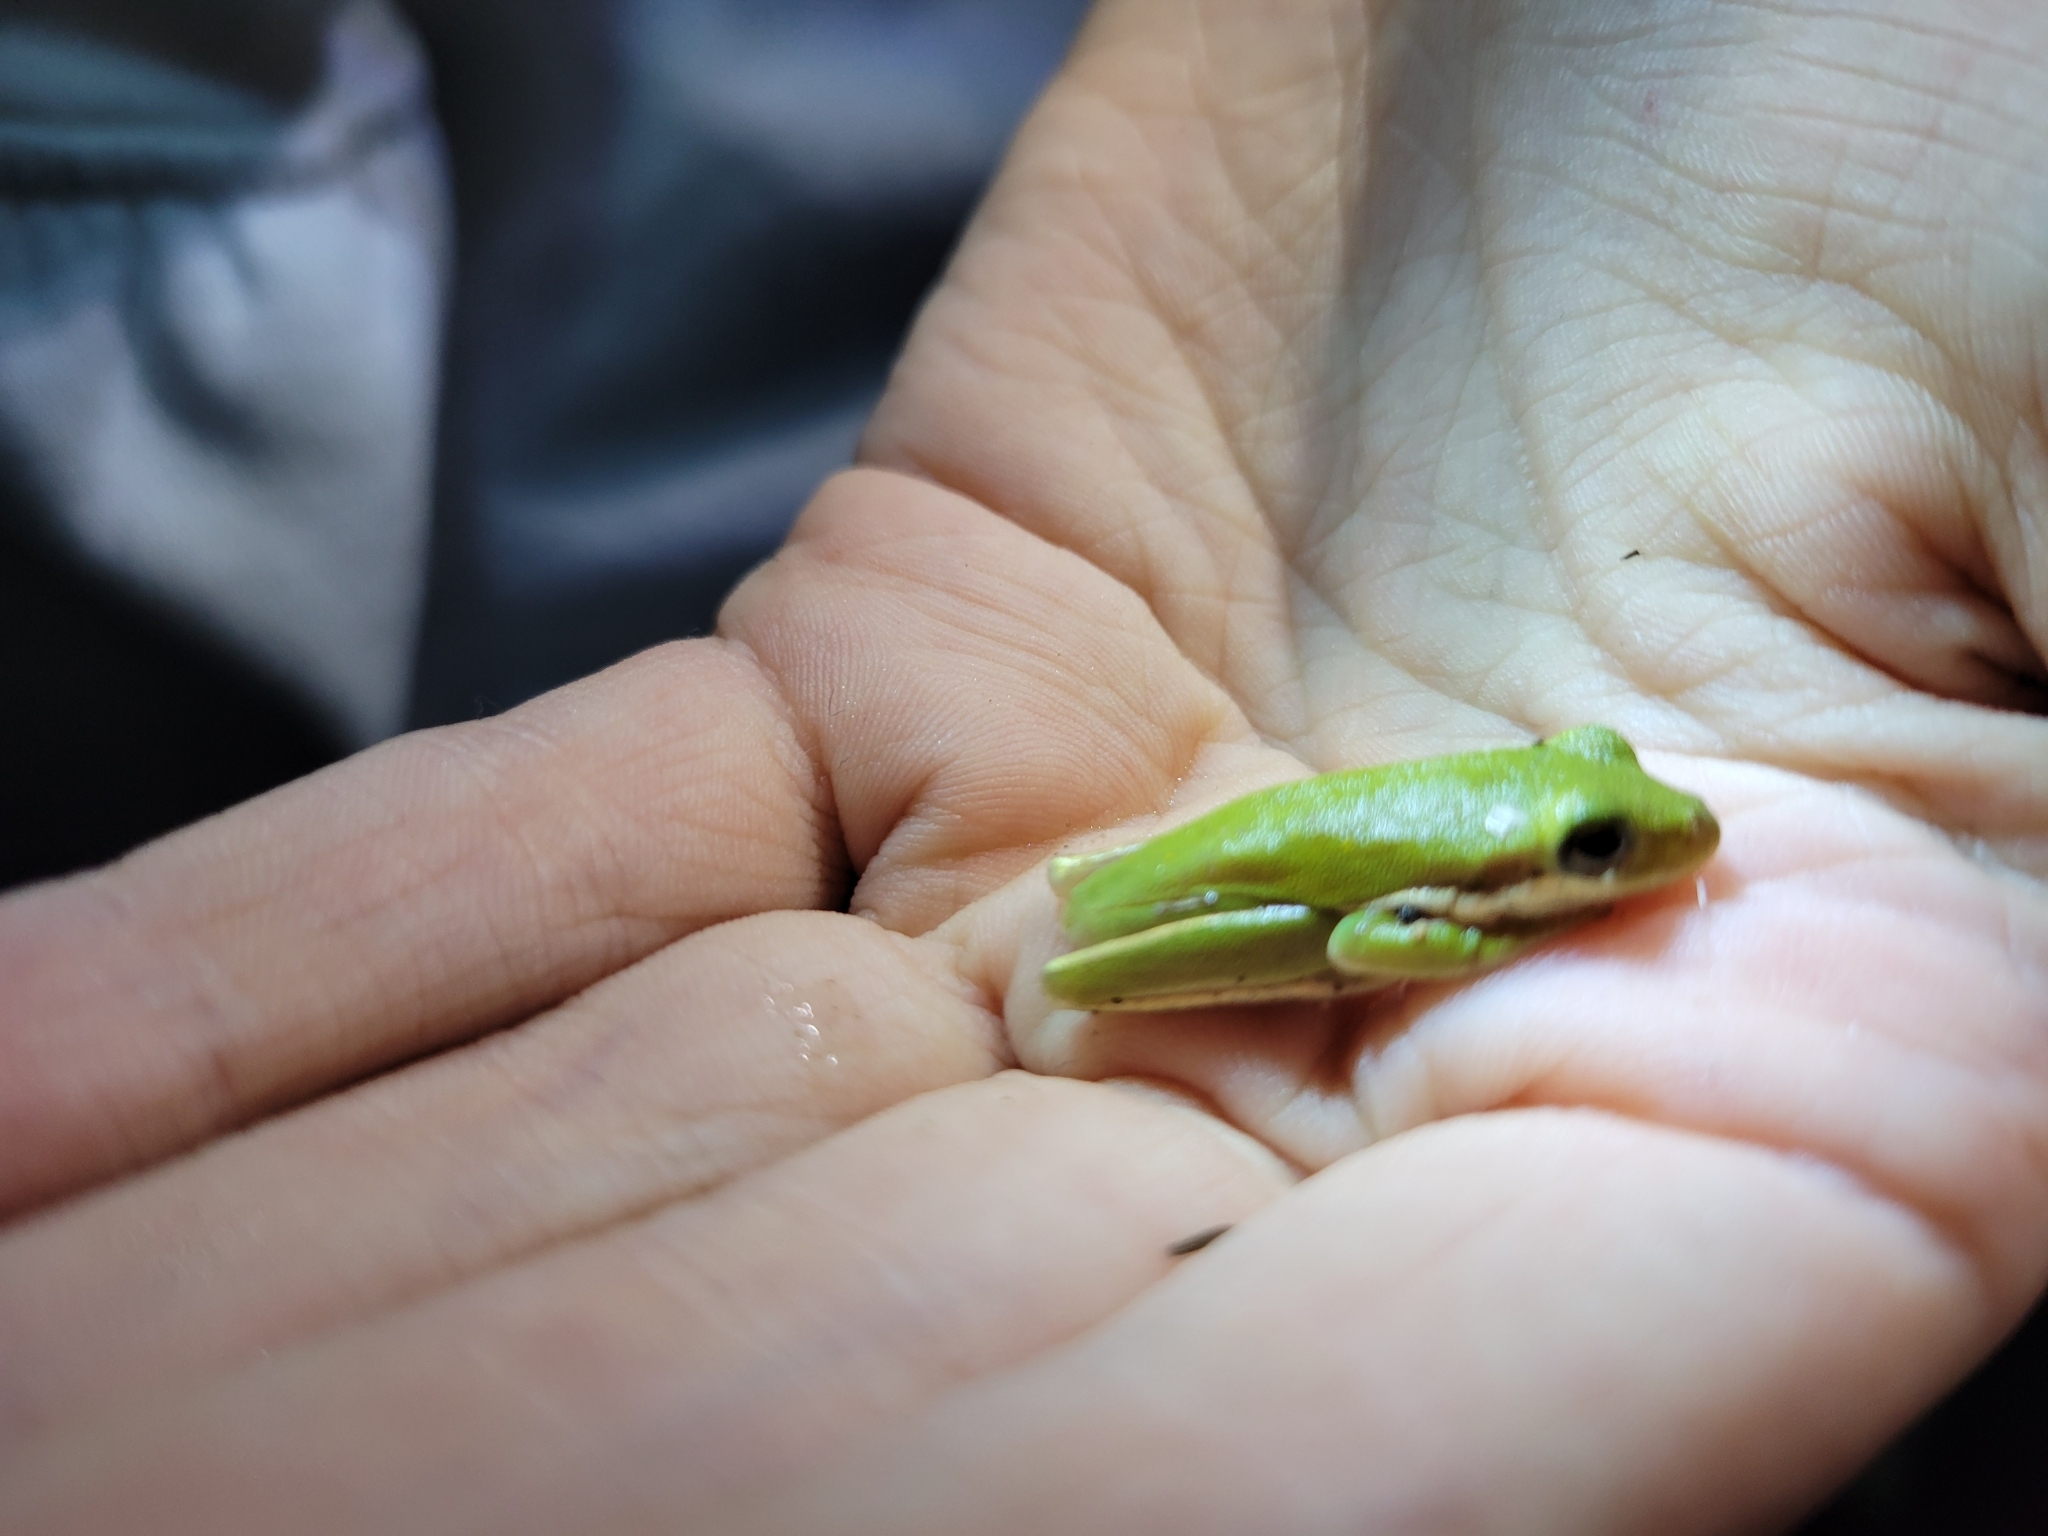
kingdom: Animalia
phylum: Chordata
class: Amphibia
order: Anura
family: Hylidae
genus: Dryophytes
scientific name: Dryophytes cinereus
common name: Green treefrog
